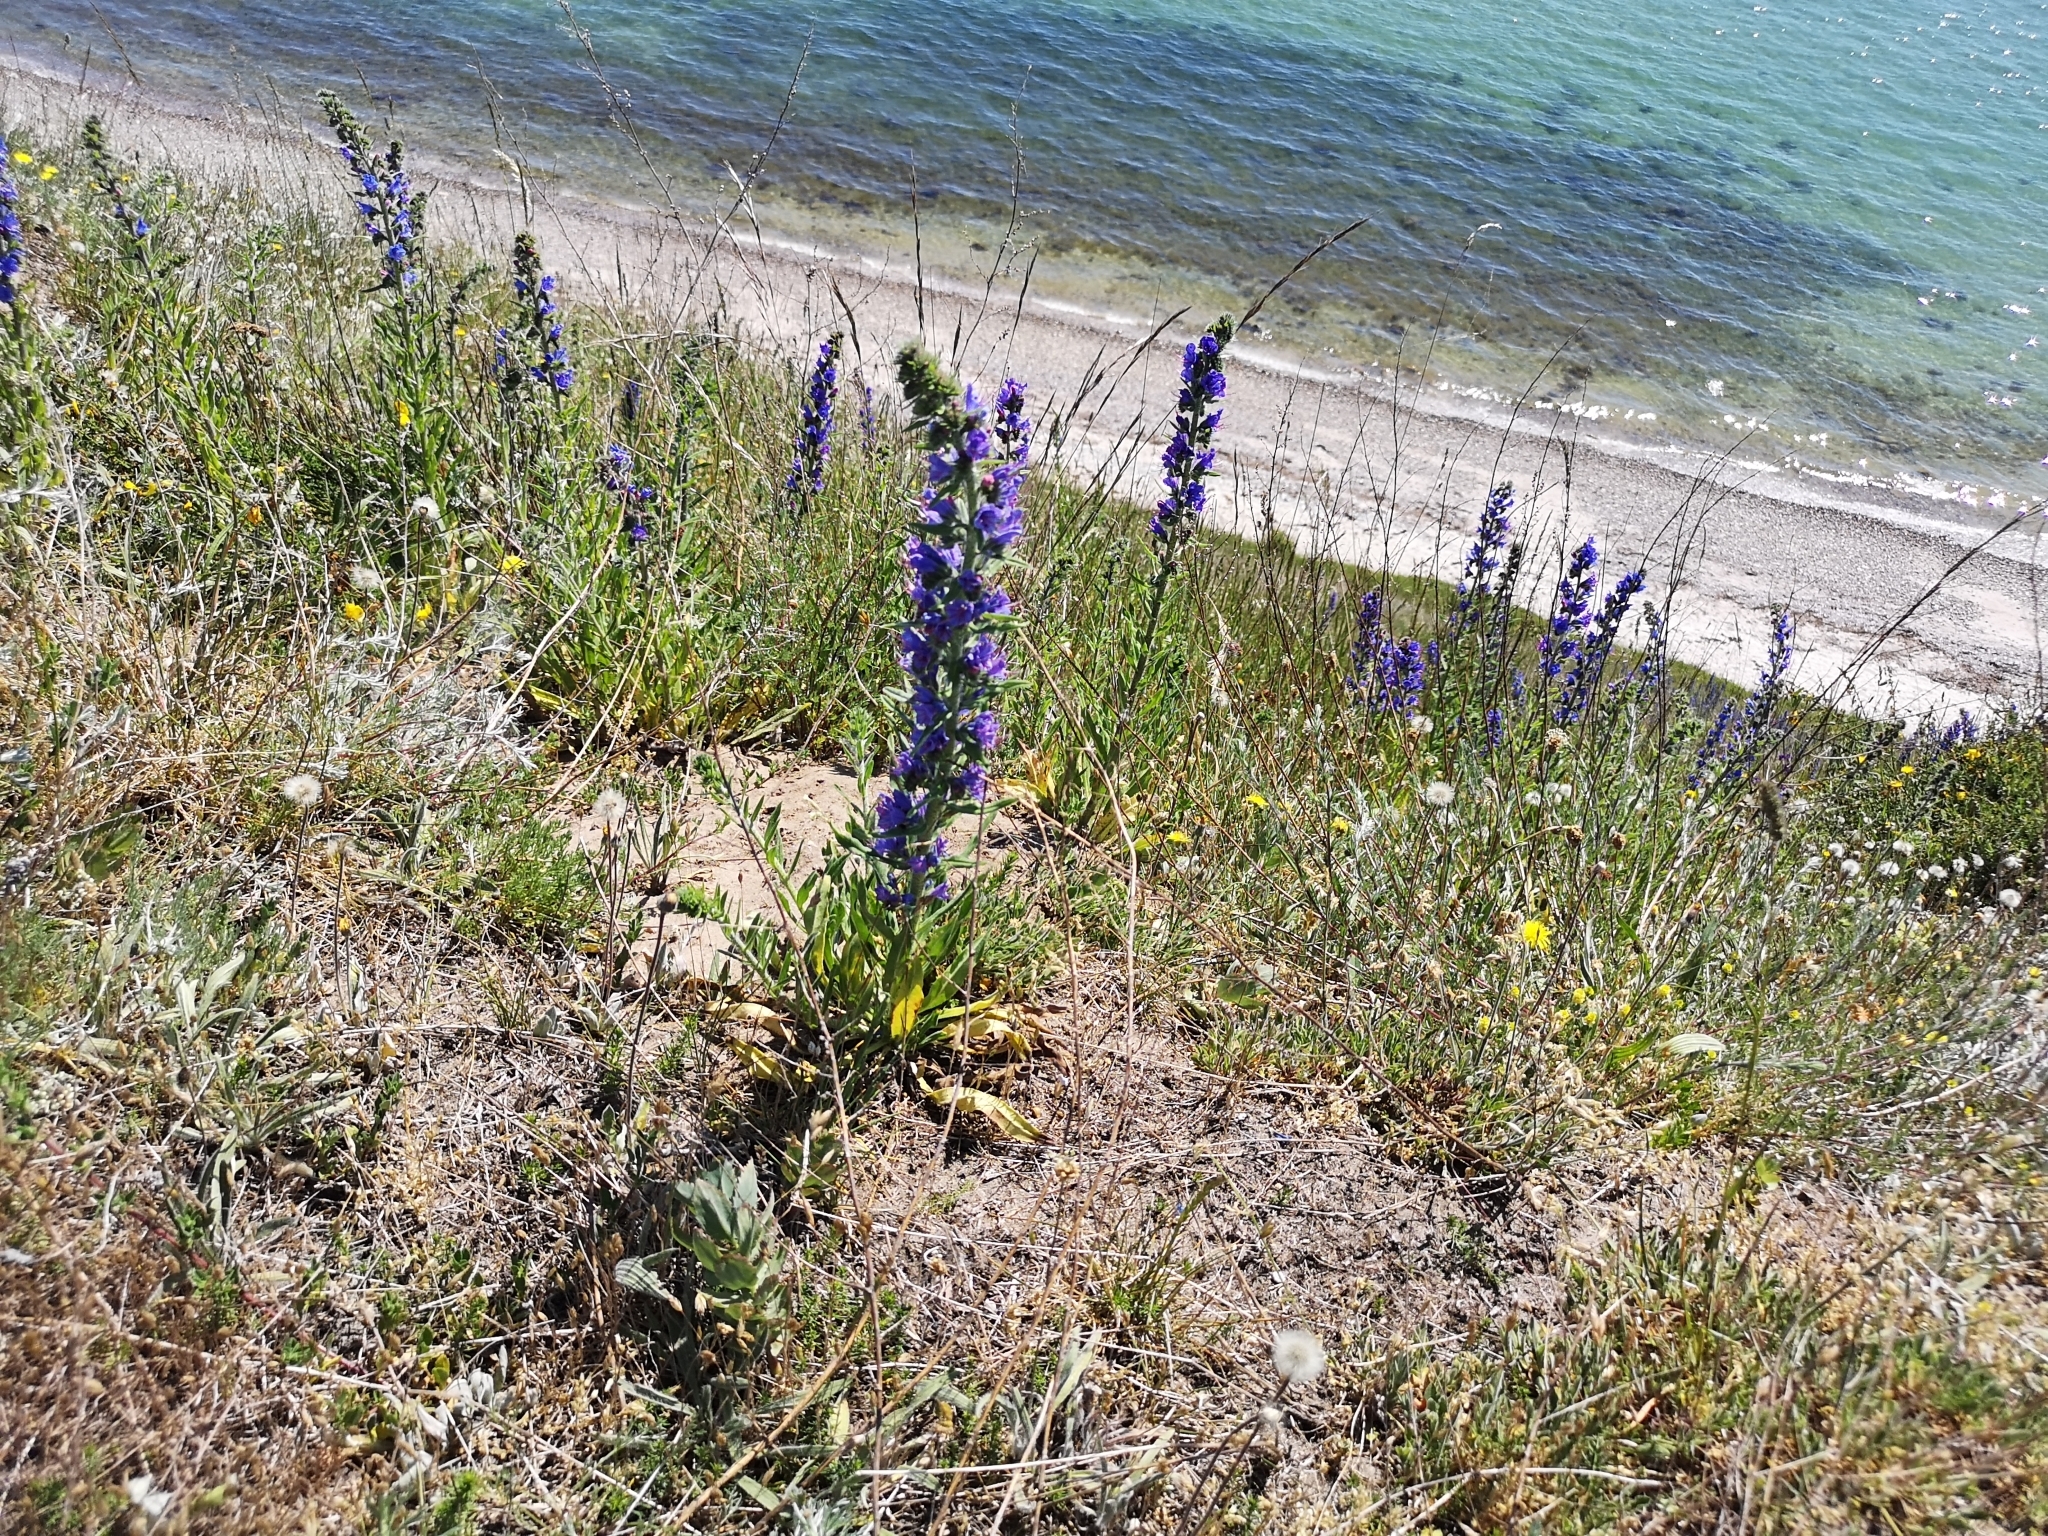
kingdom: Plantae
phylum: Tracheophyta
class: Magnoliopsida
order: Boraginales
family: Boraginaceae
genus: Echium
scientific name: Echium vulgare
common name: Common viper's bugloss
